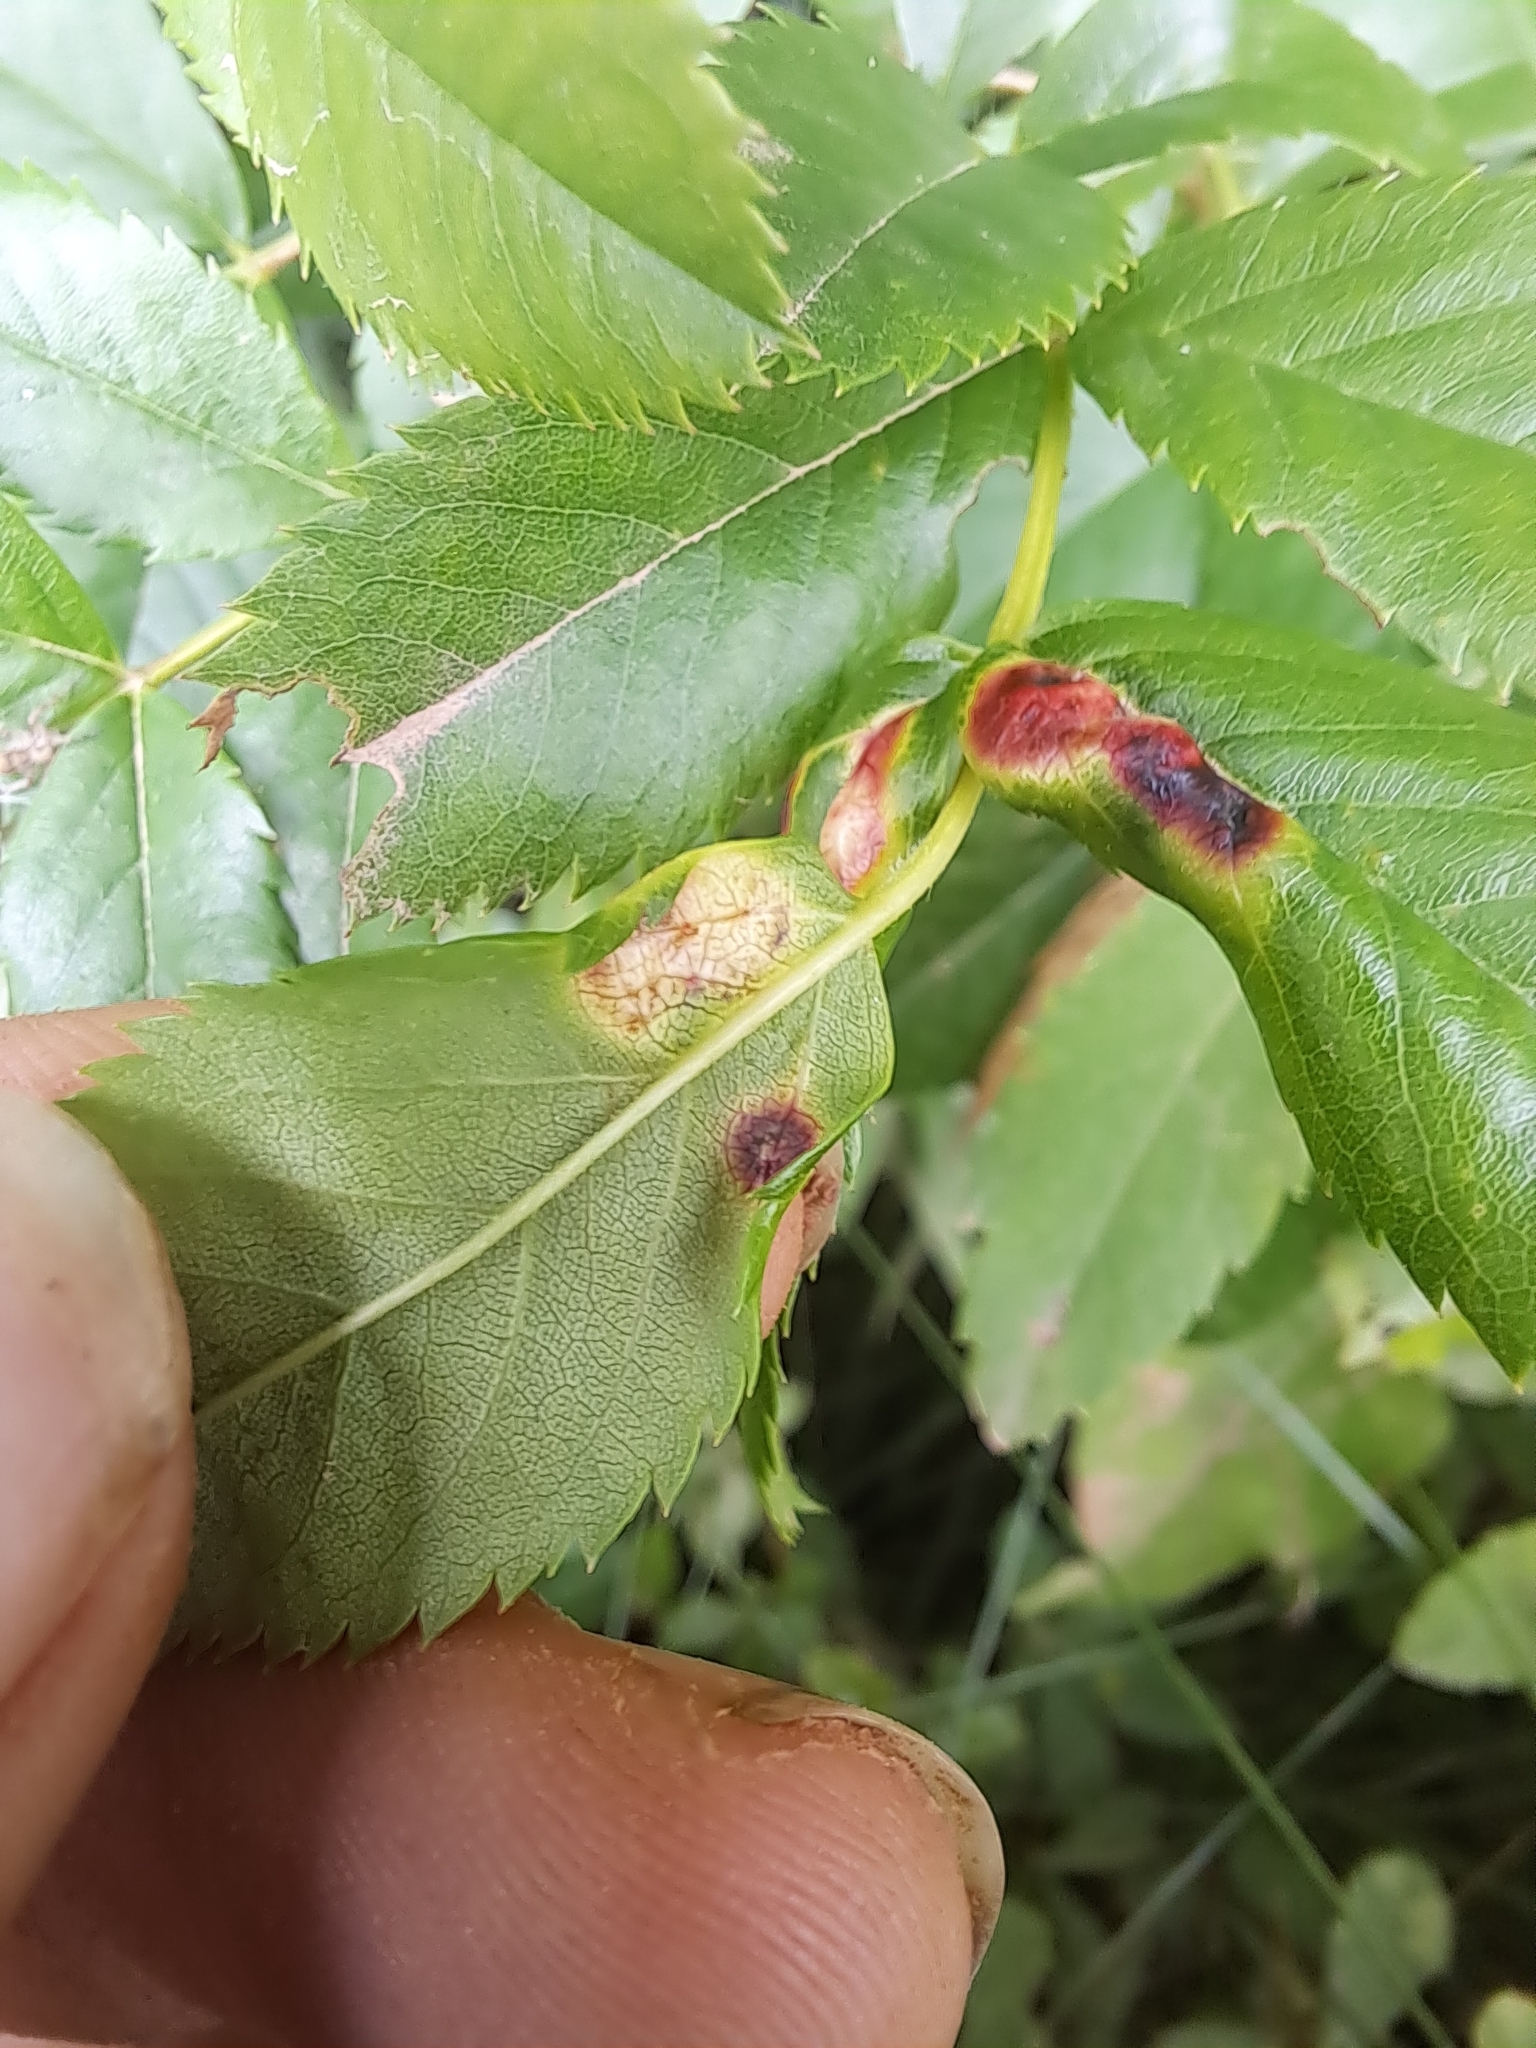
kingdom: Animalia
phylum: Arthropoda
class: Insecta
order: Hymenoptera
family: Cynipidae
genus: Diplolepis
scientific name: Diplolepis rosaefolii
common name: Blister-gall wasp
